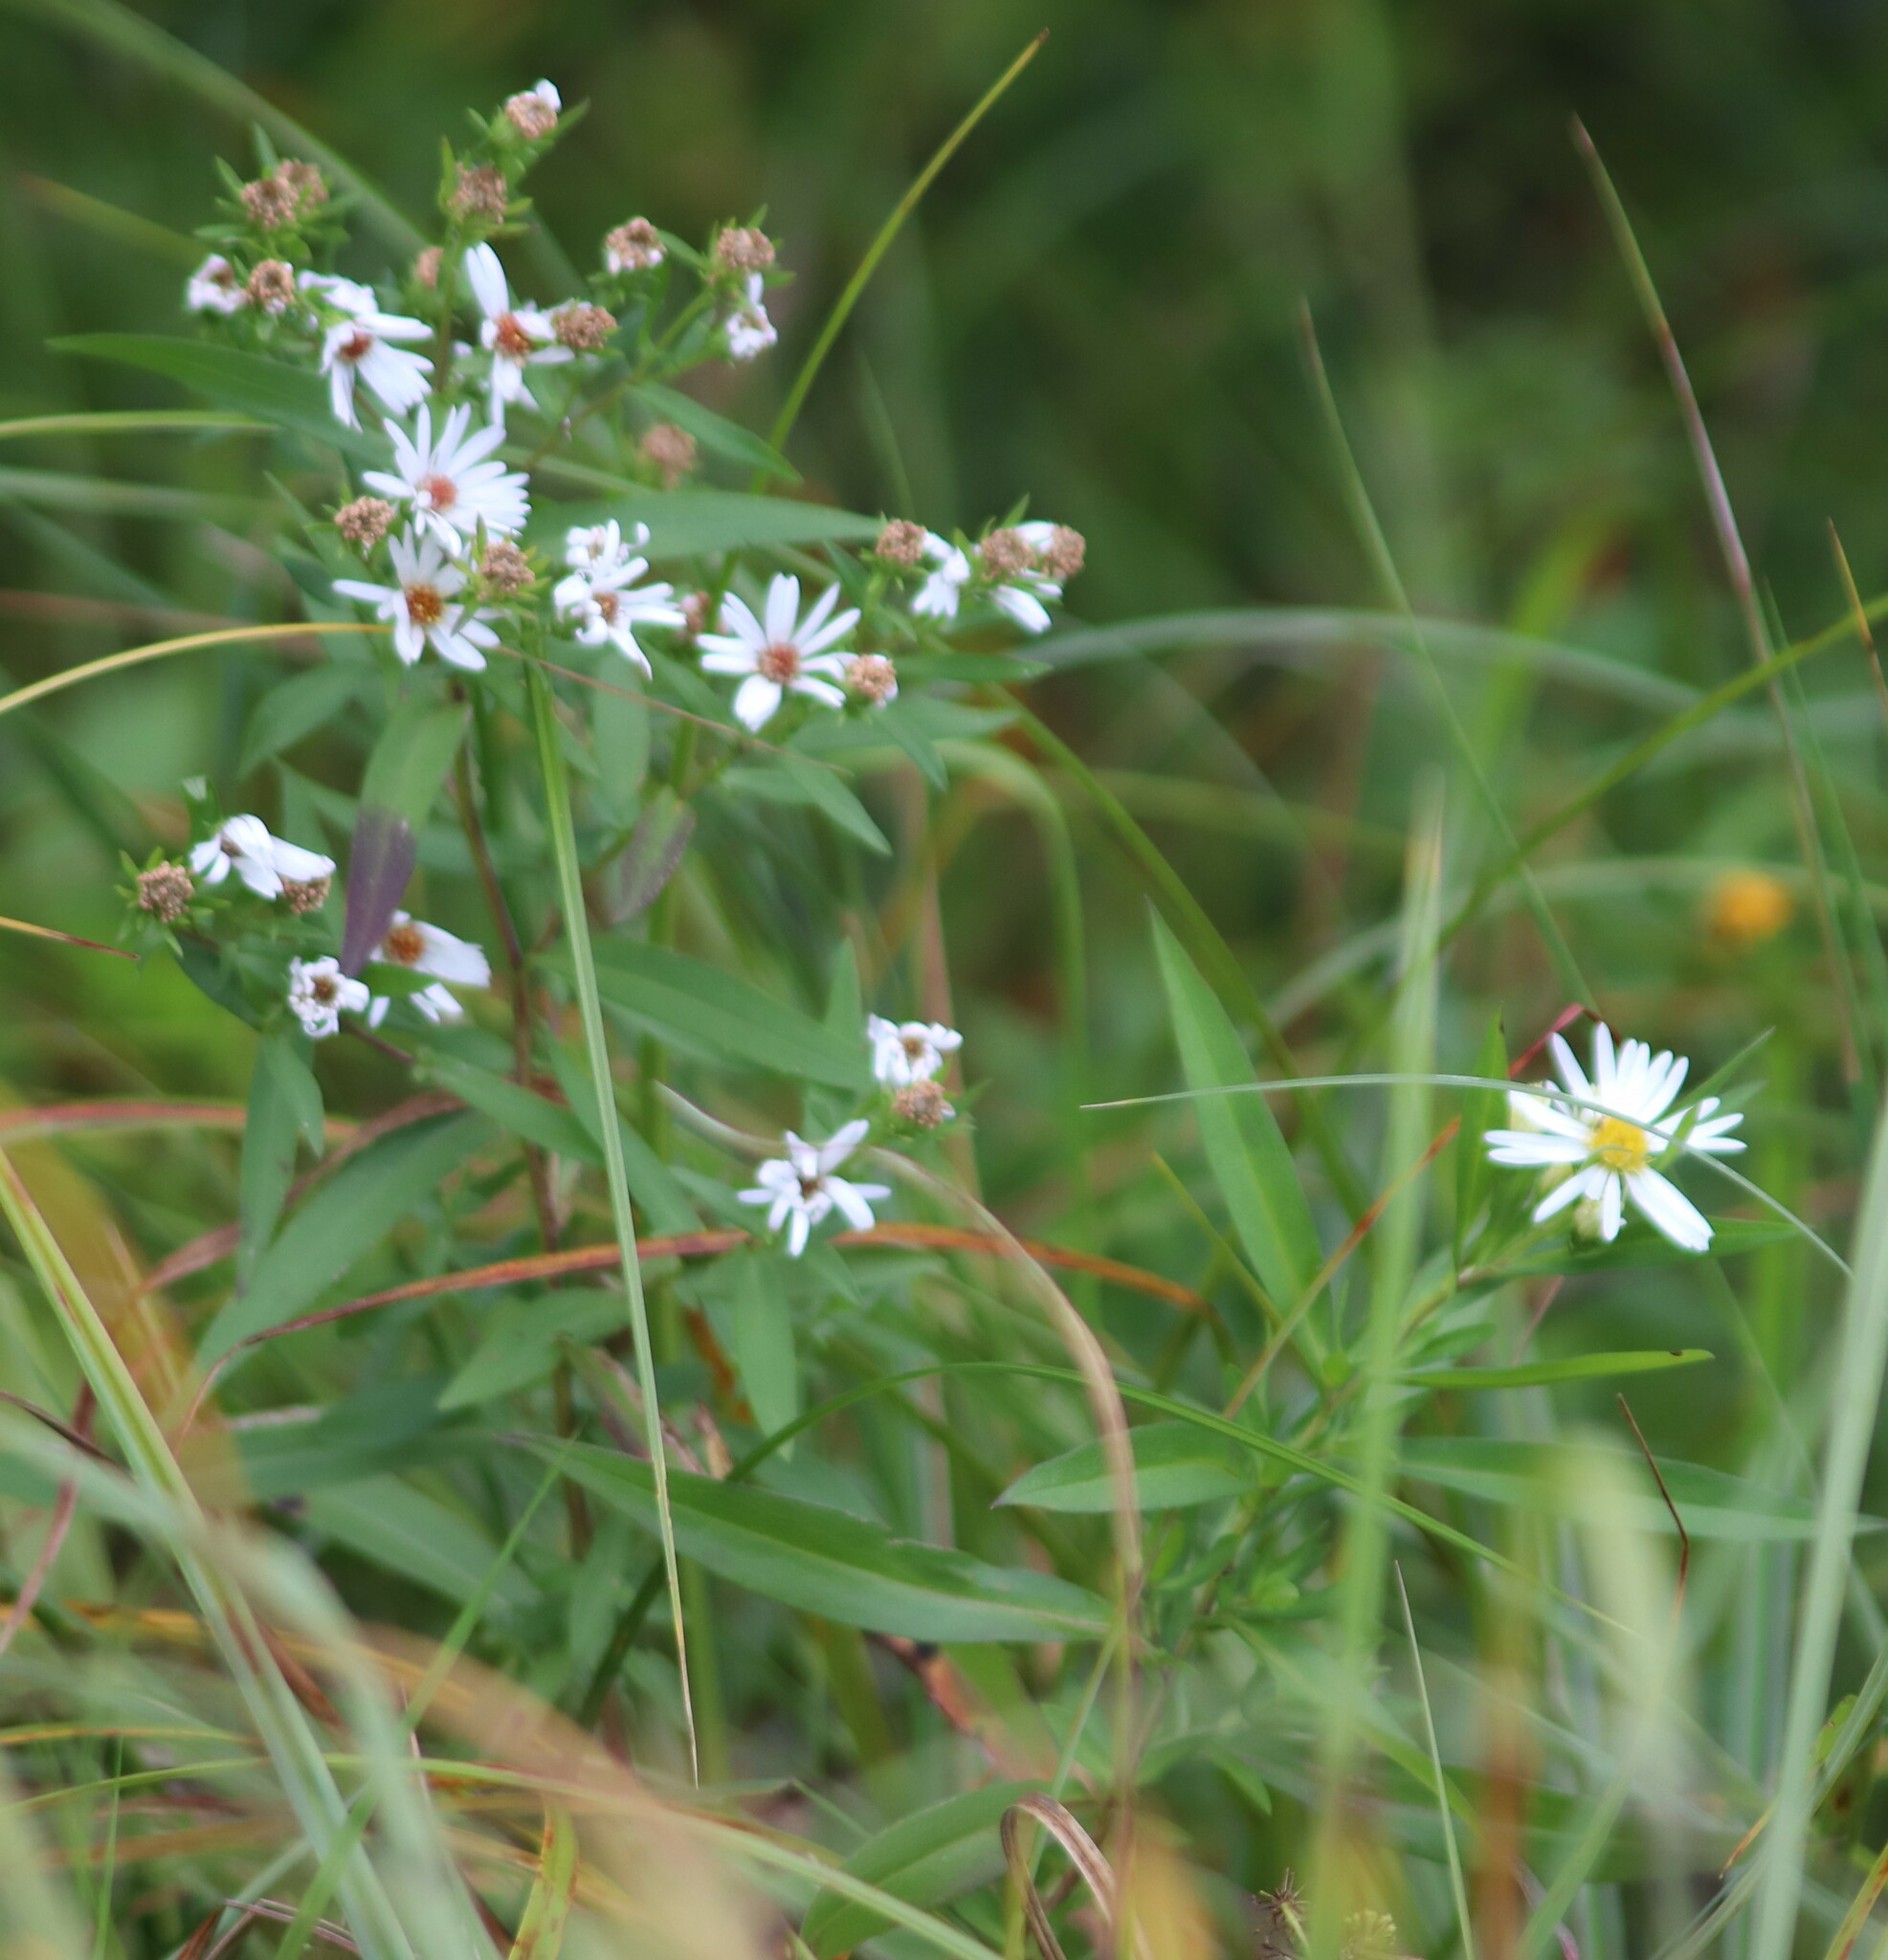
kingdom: Plantae
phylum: Tracheophyta
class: Magnoliopsida
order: Asterales
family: Asteraceae
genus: Symphyotrichum
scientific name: Symphyotrichum lanceolatum
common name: Panicled aster
